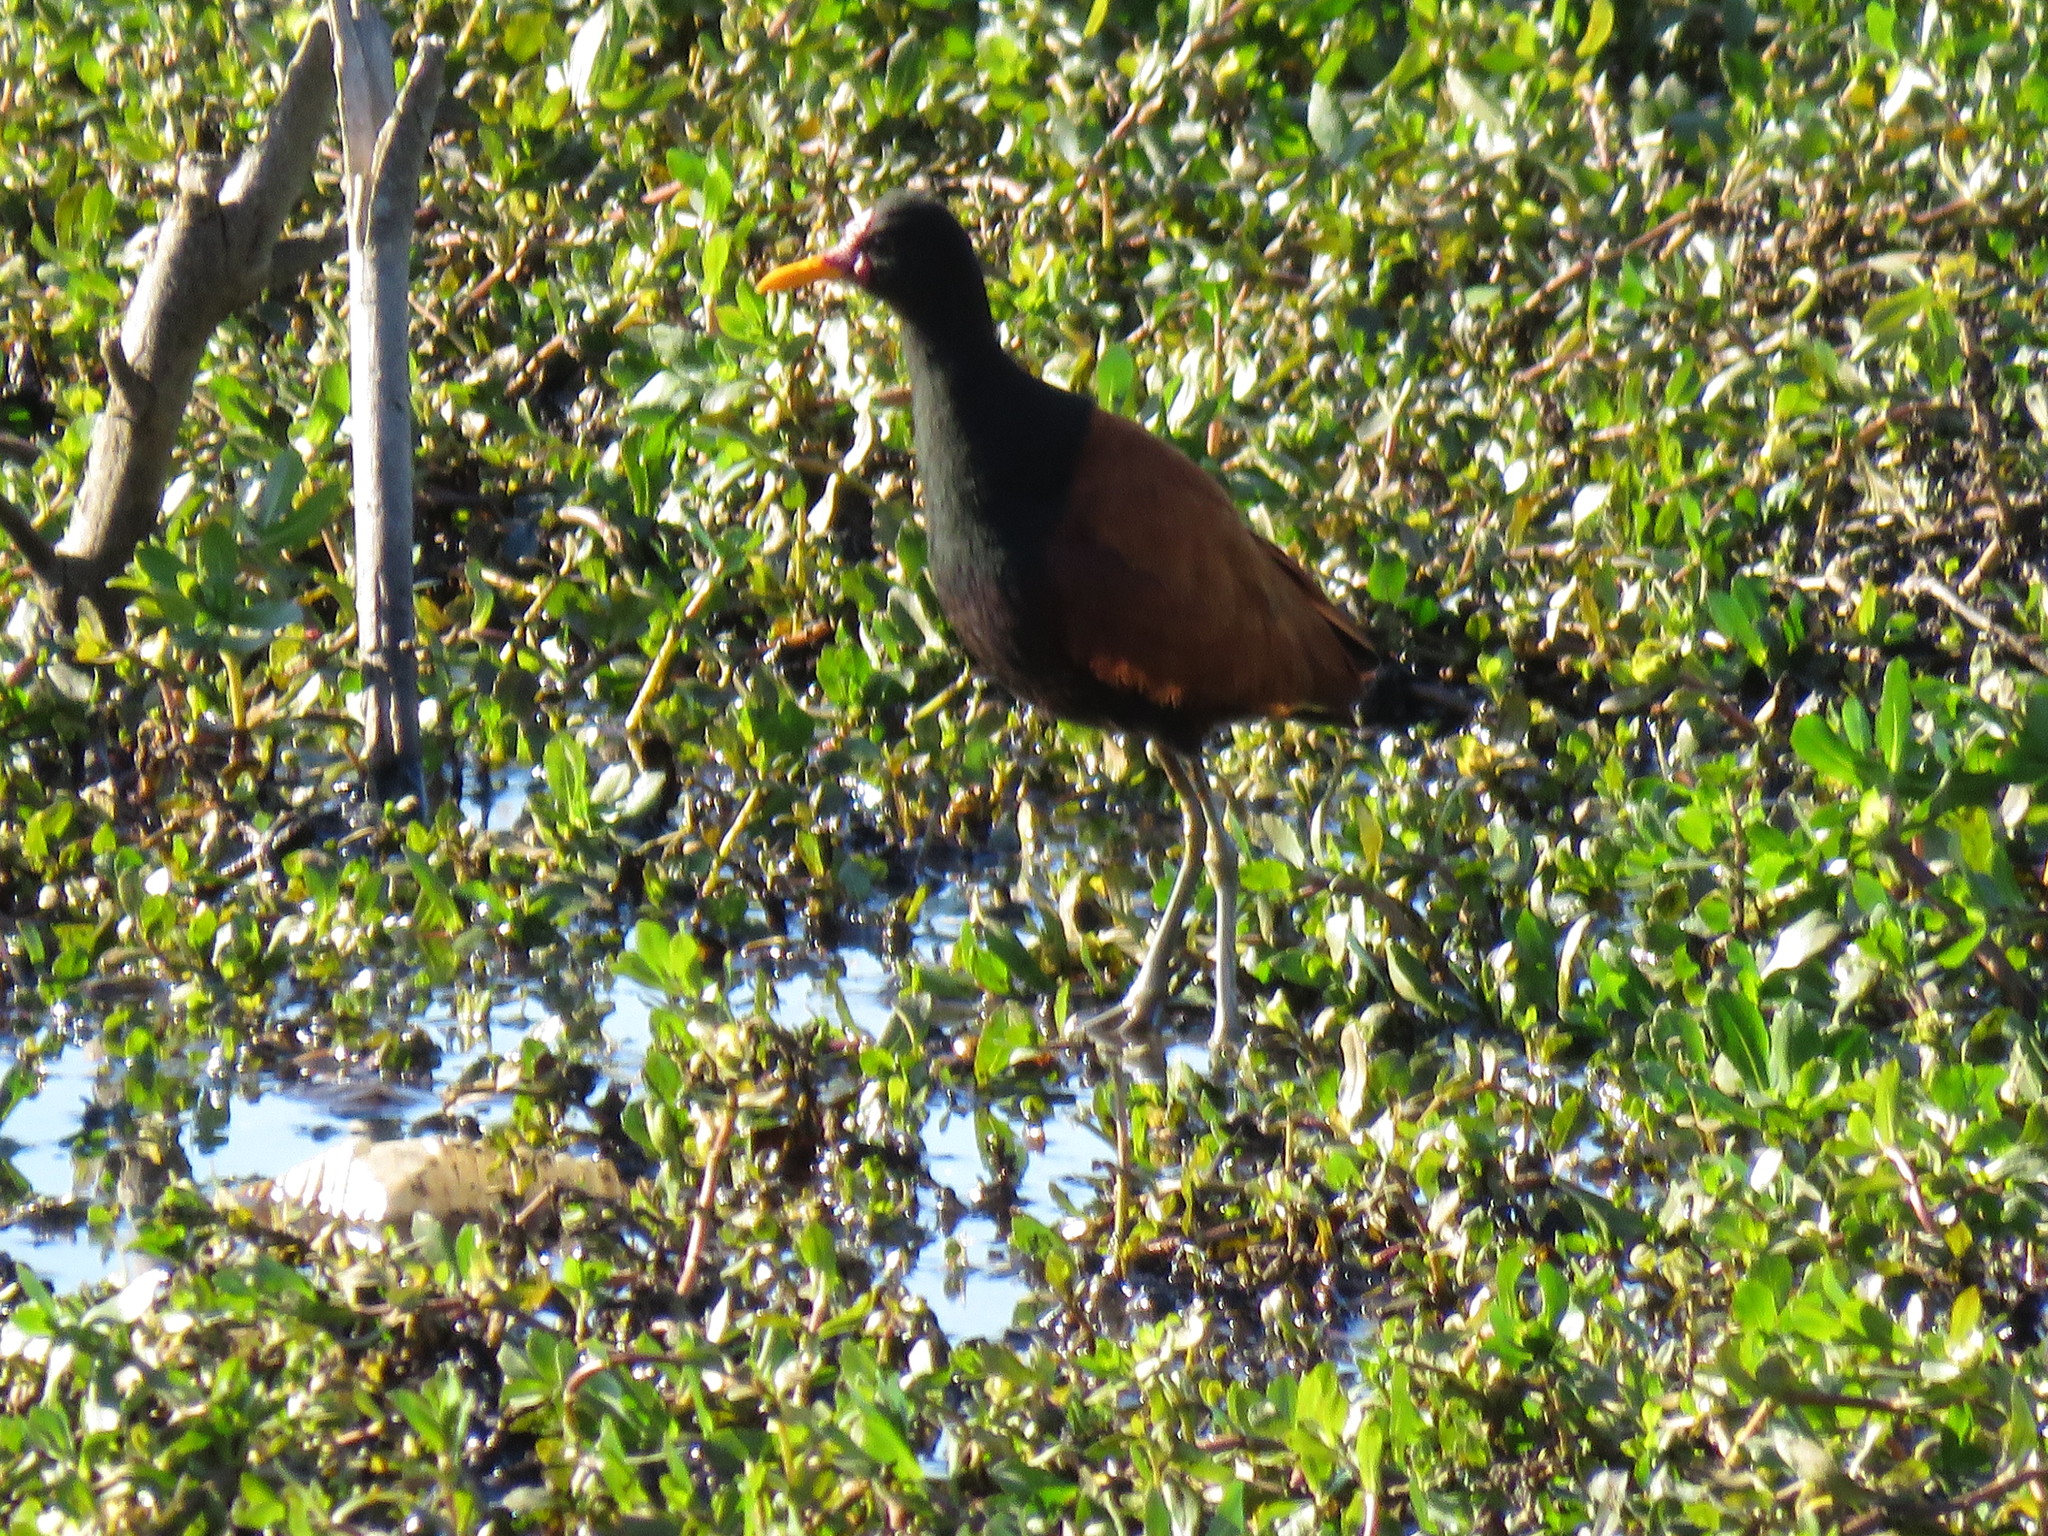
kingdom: Animalia
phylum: Chordata
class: Aves
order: Charadriiformes
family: Jacanidae
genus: Jacana
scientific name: Jacana jacana
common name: Wattled jacana
